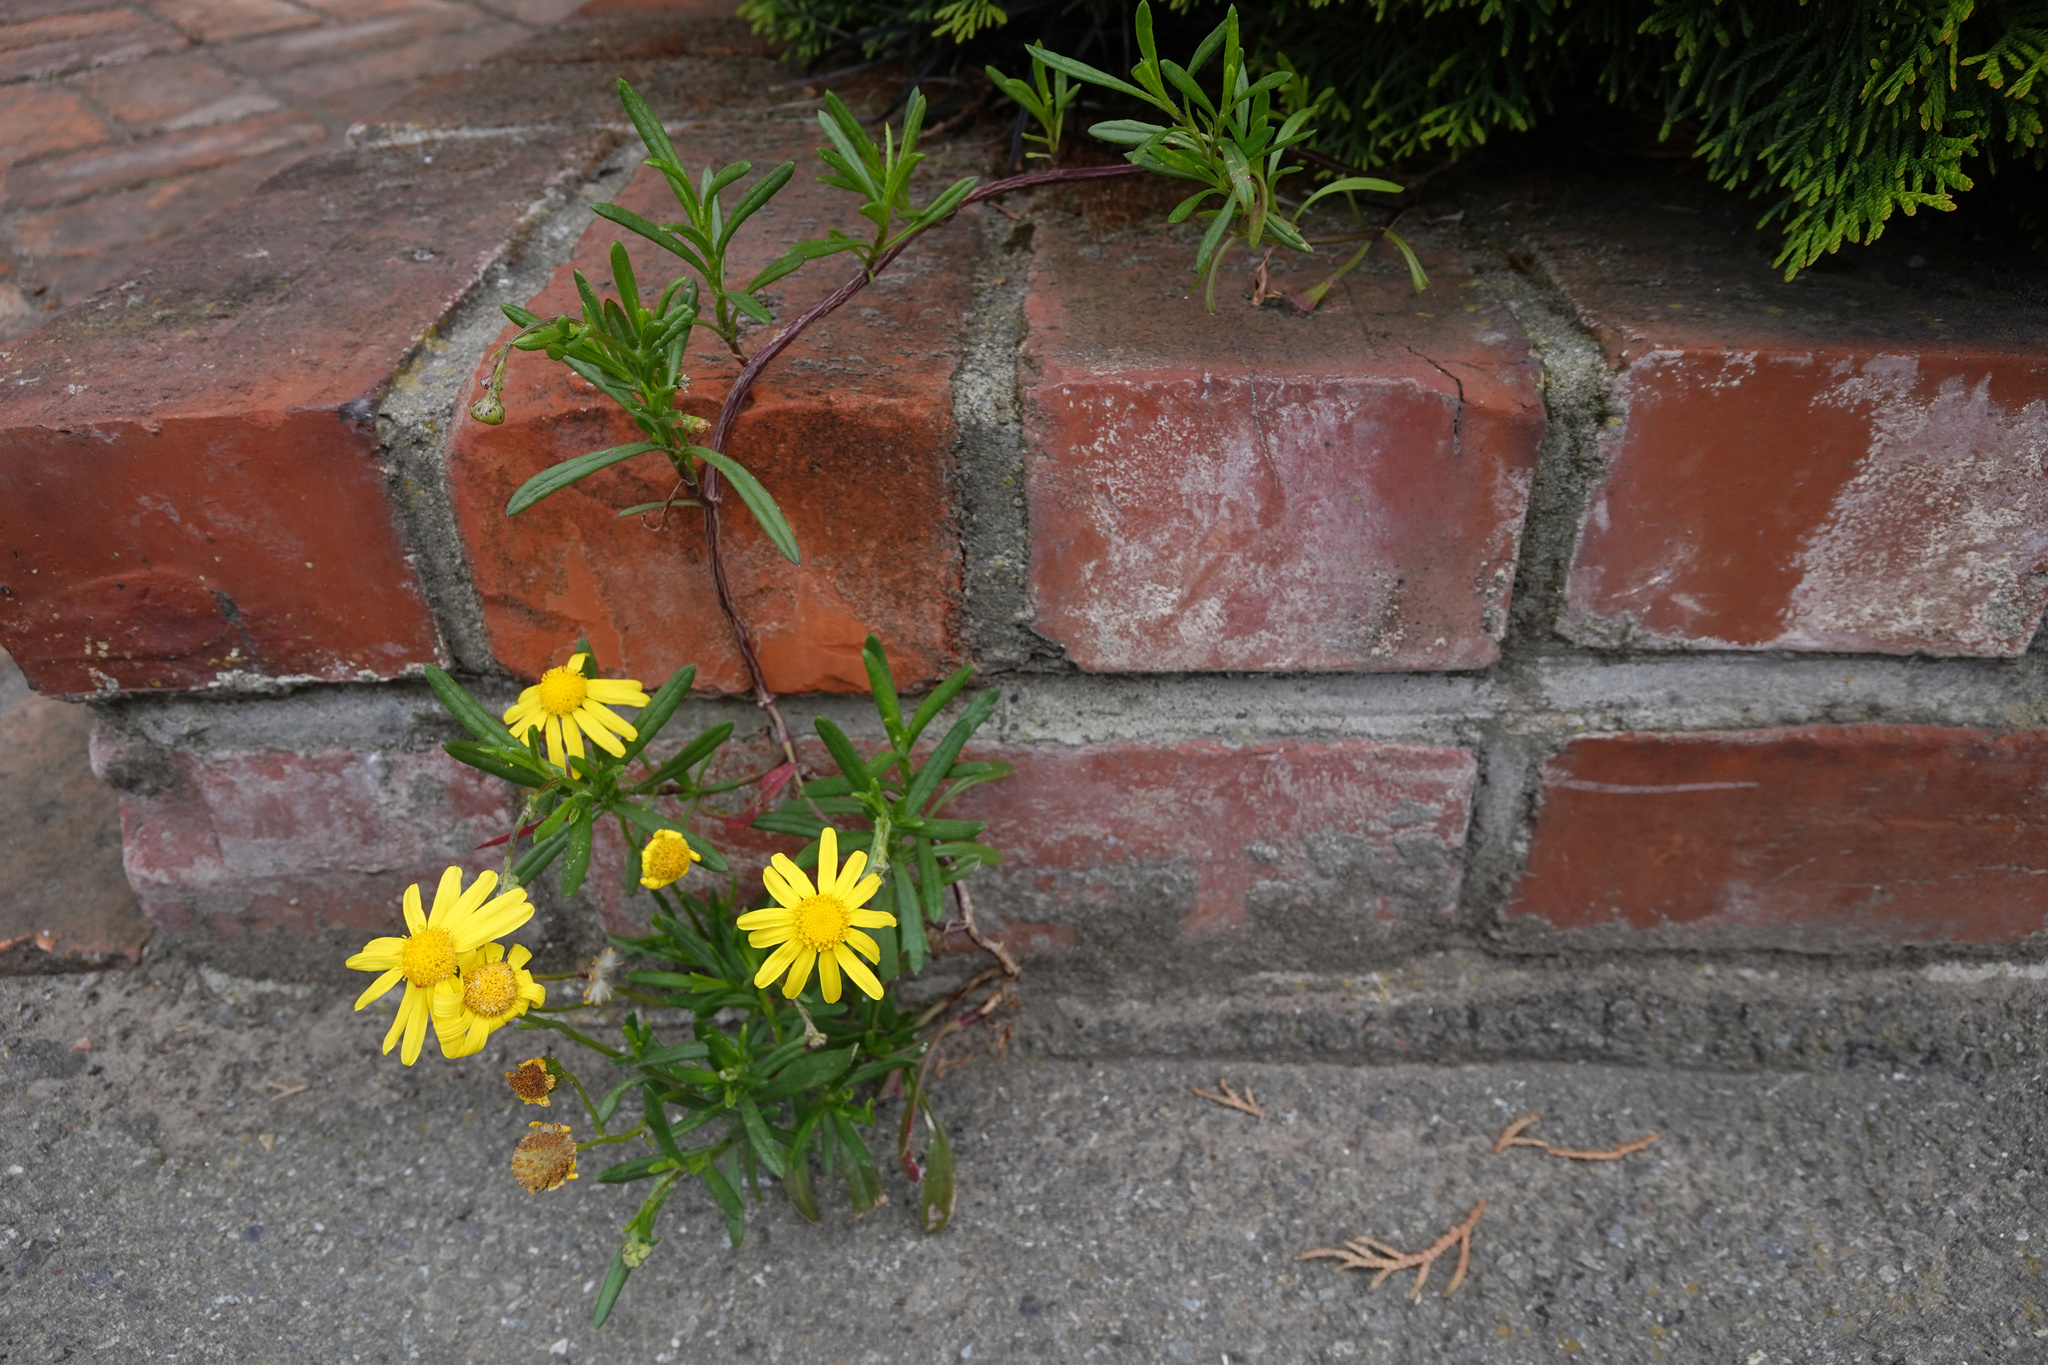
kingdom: Plantae
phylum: Tracheophyta
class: Magnoliopsida
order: Asterales
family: Asteraceae
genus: Senecio
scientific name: Senecio skirrhodon
